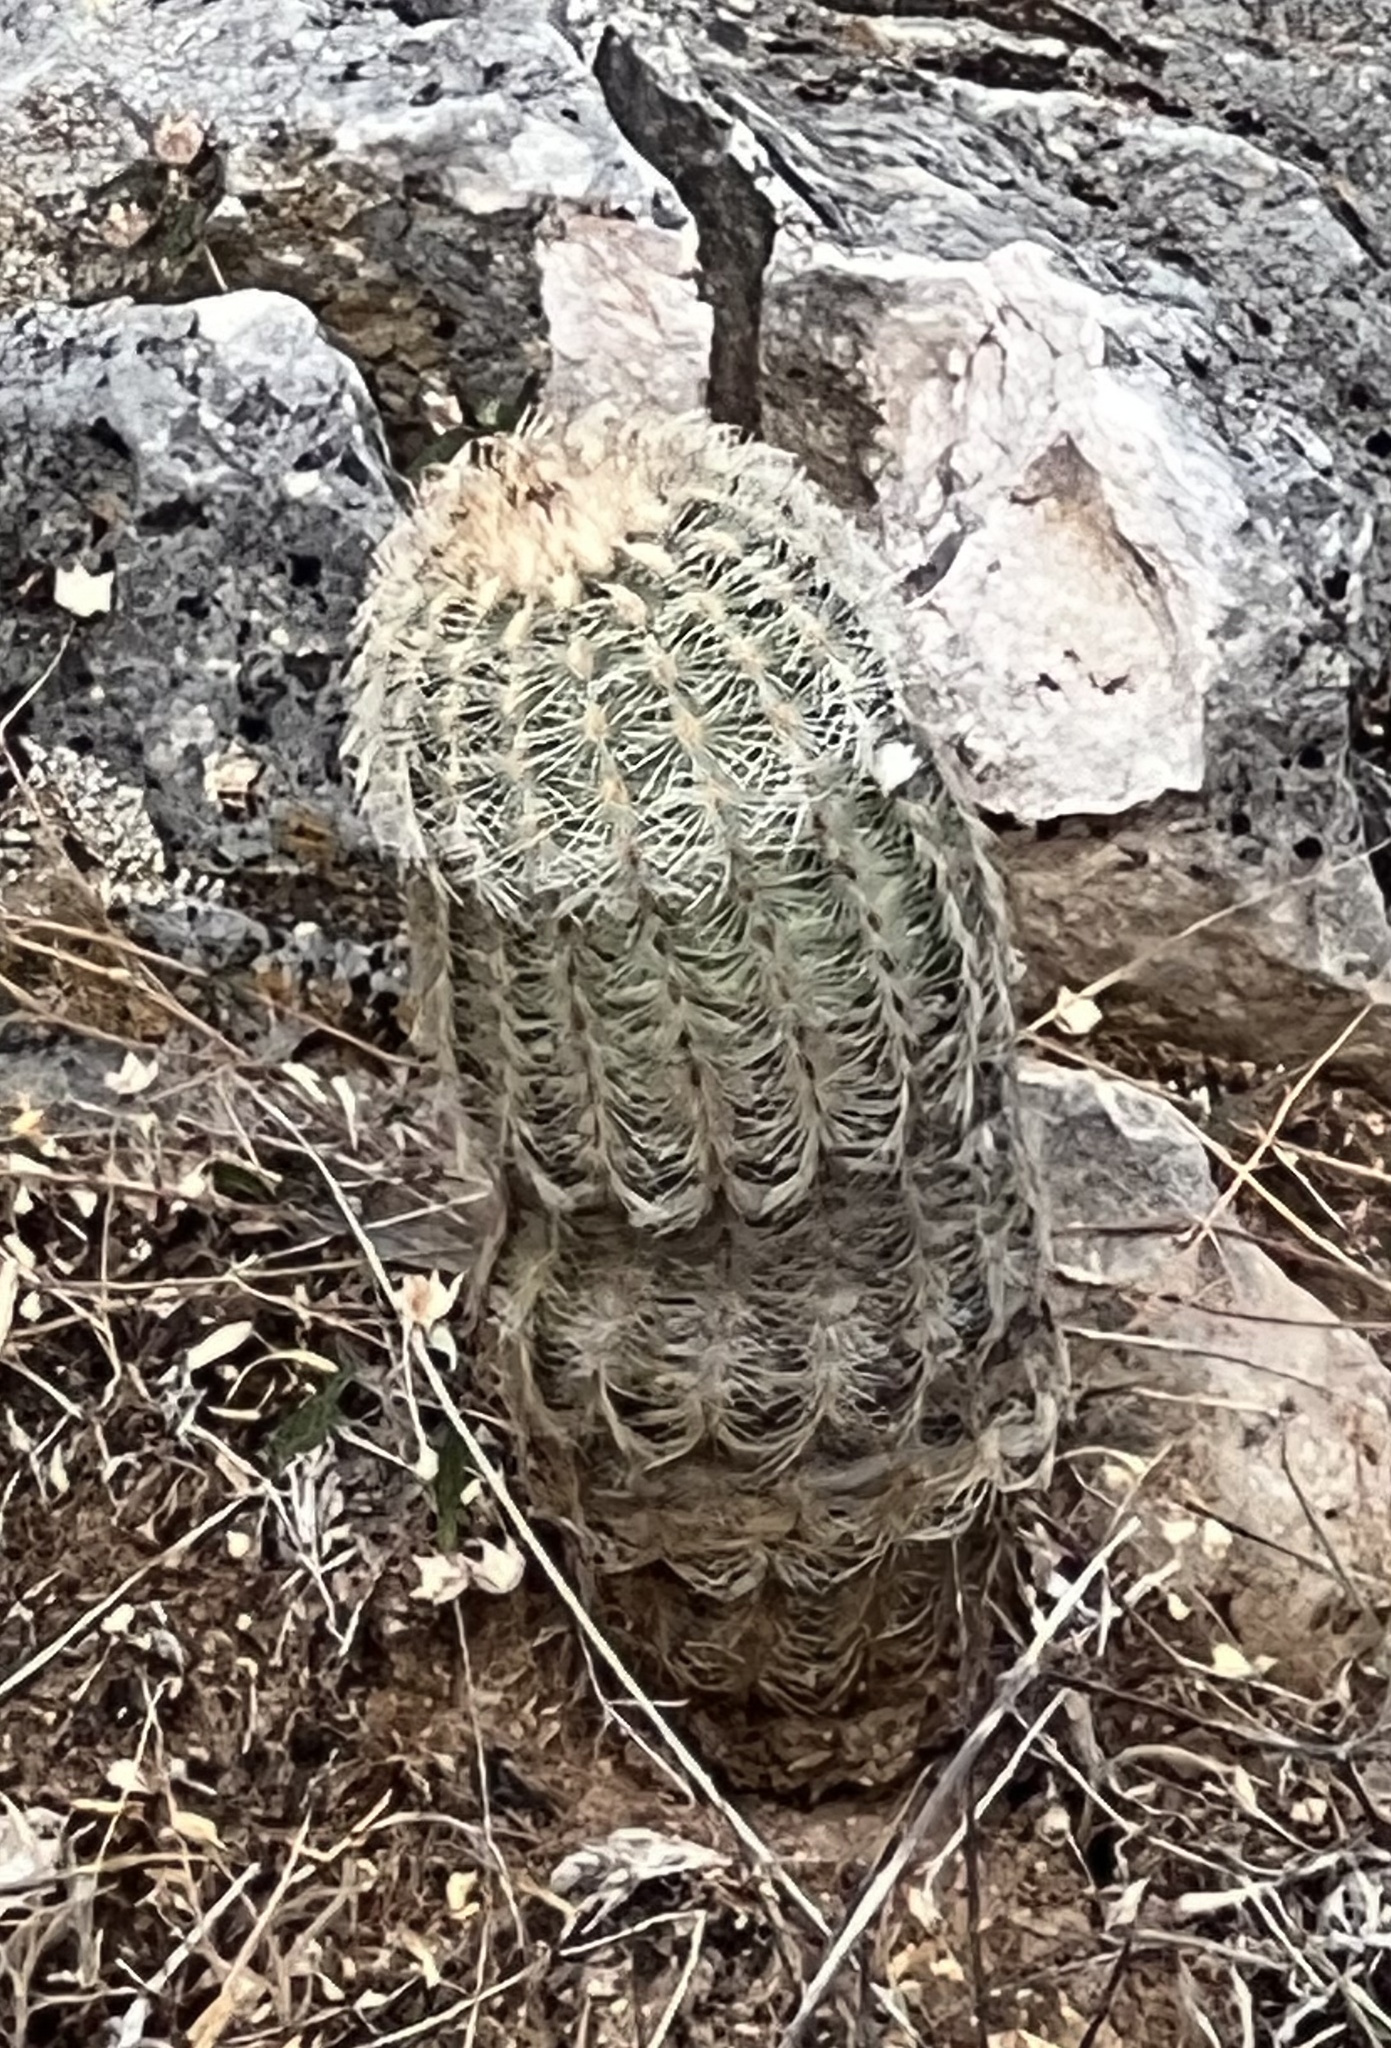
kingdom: Plantae
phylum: Tracheophyta
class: Magnoliopsida
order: Caryophyllales
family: Cactaceae
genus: Echinocereus
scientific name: Echinocereus reichenbachii
